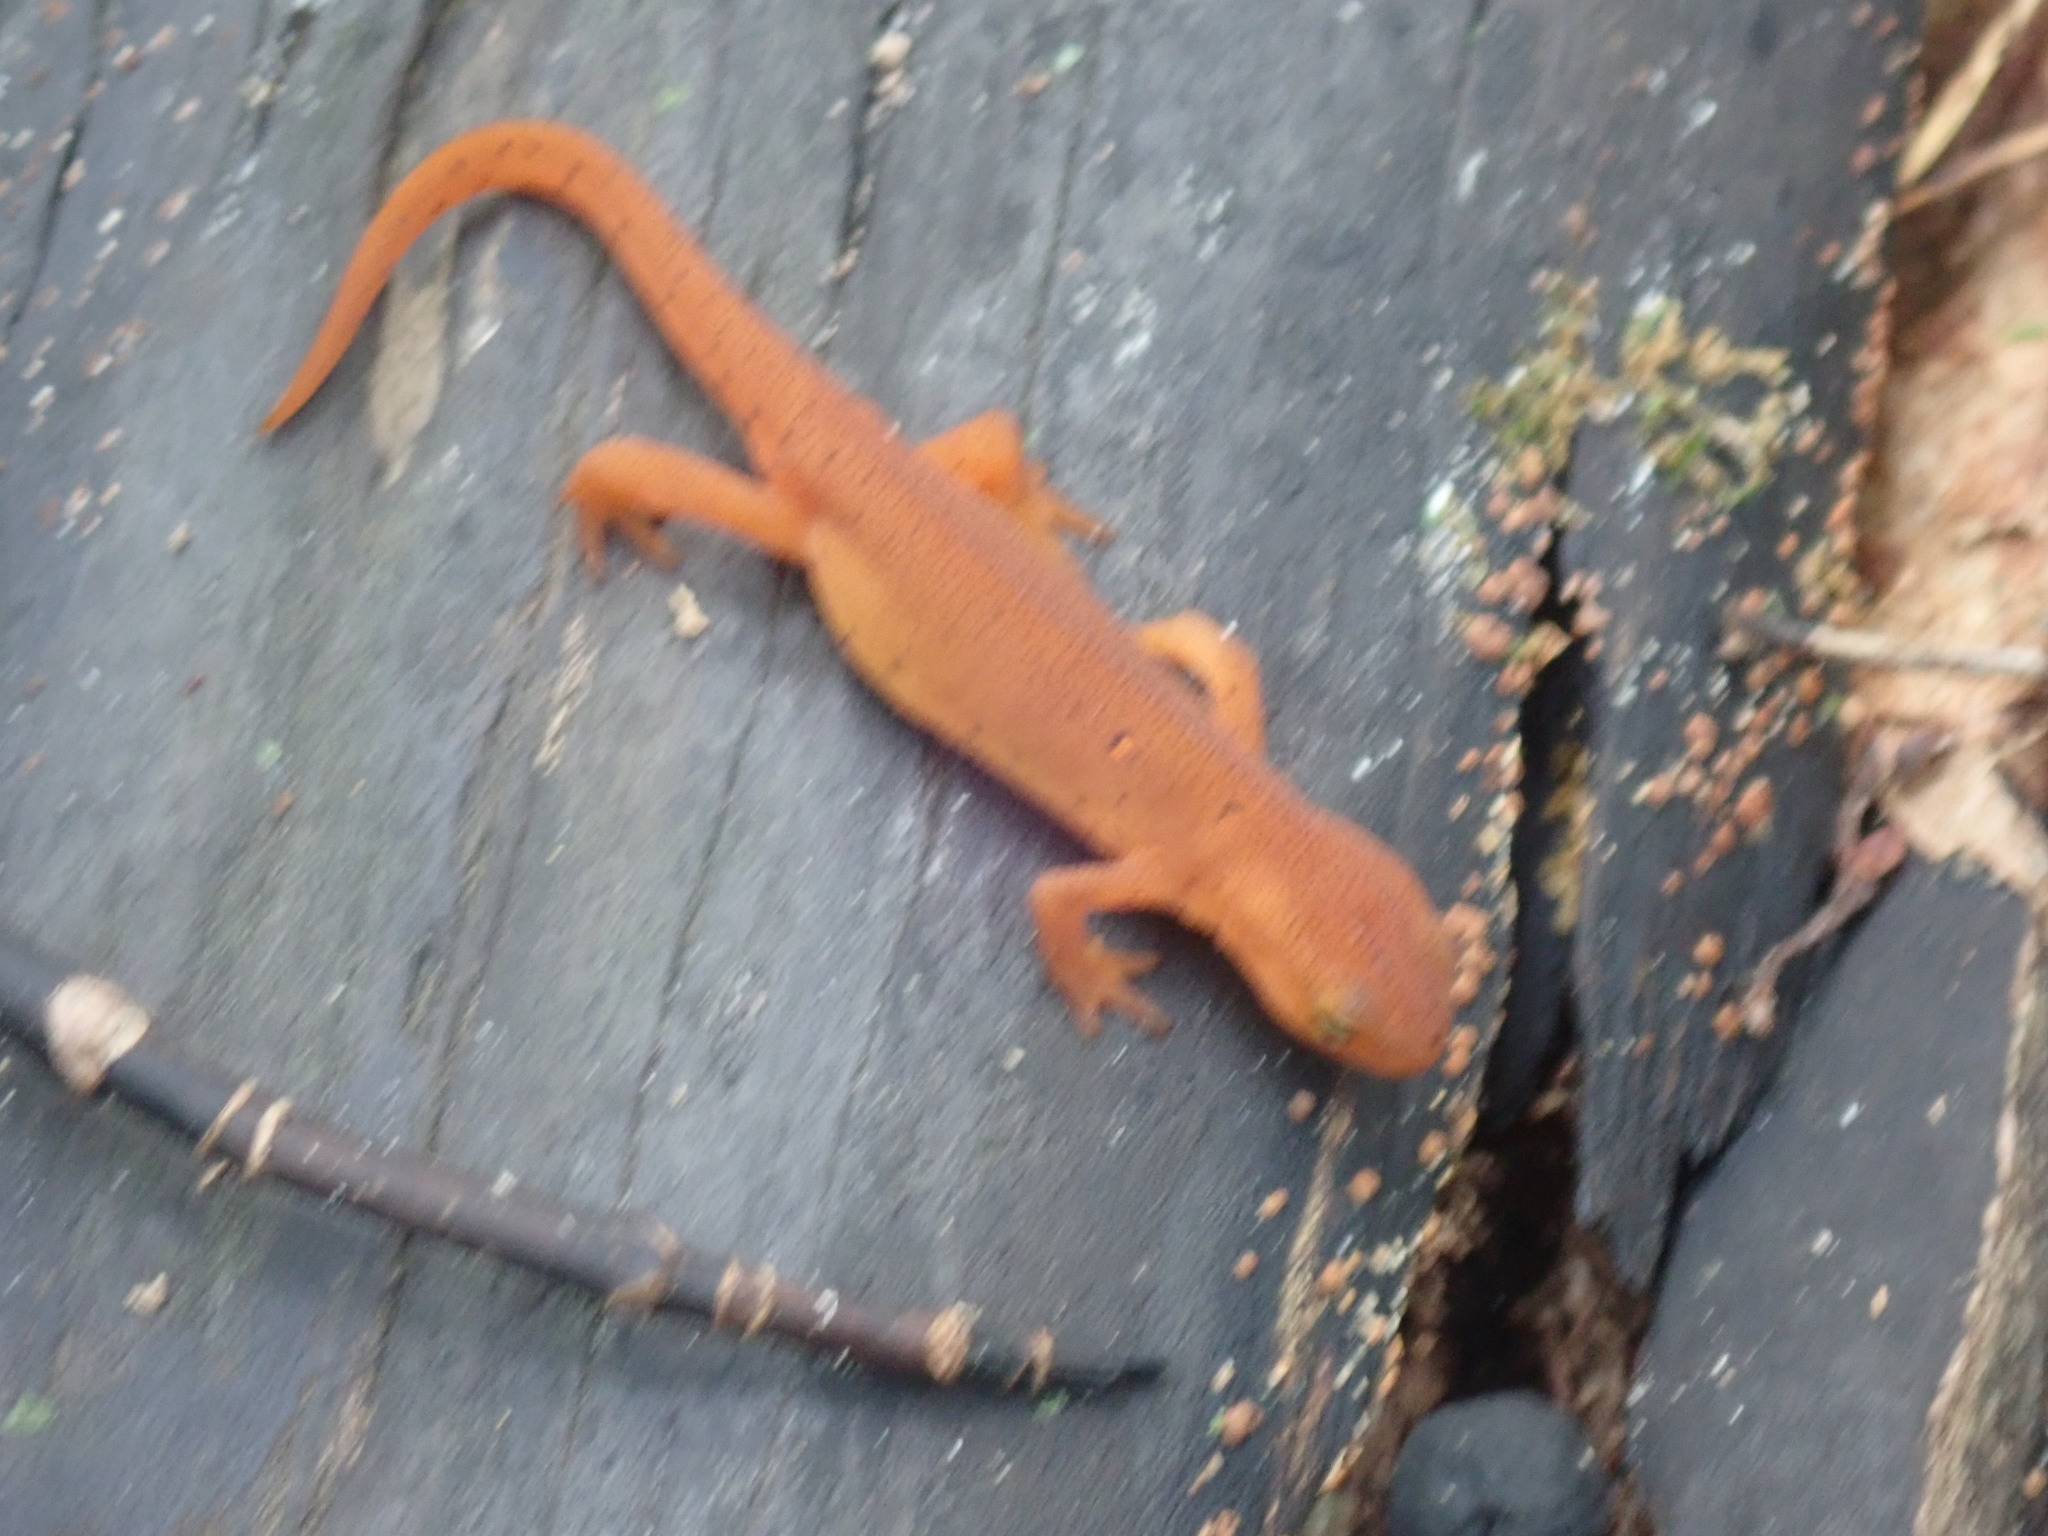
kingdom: Animalia
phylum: Chordata
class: Amphibia
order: Caudata
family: Salamandridae
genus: Notophthalmus
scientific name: Notophthalmus viridescens
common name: Eastern newt
